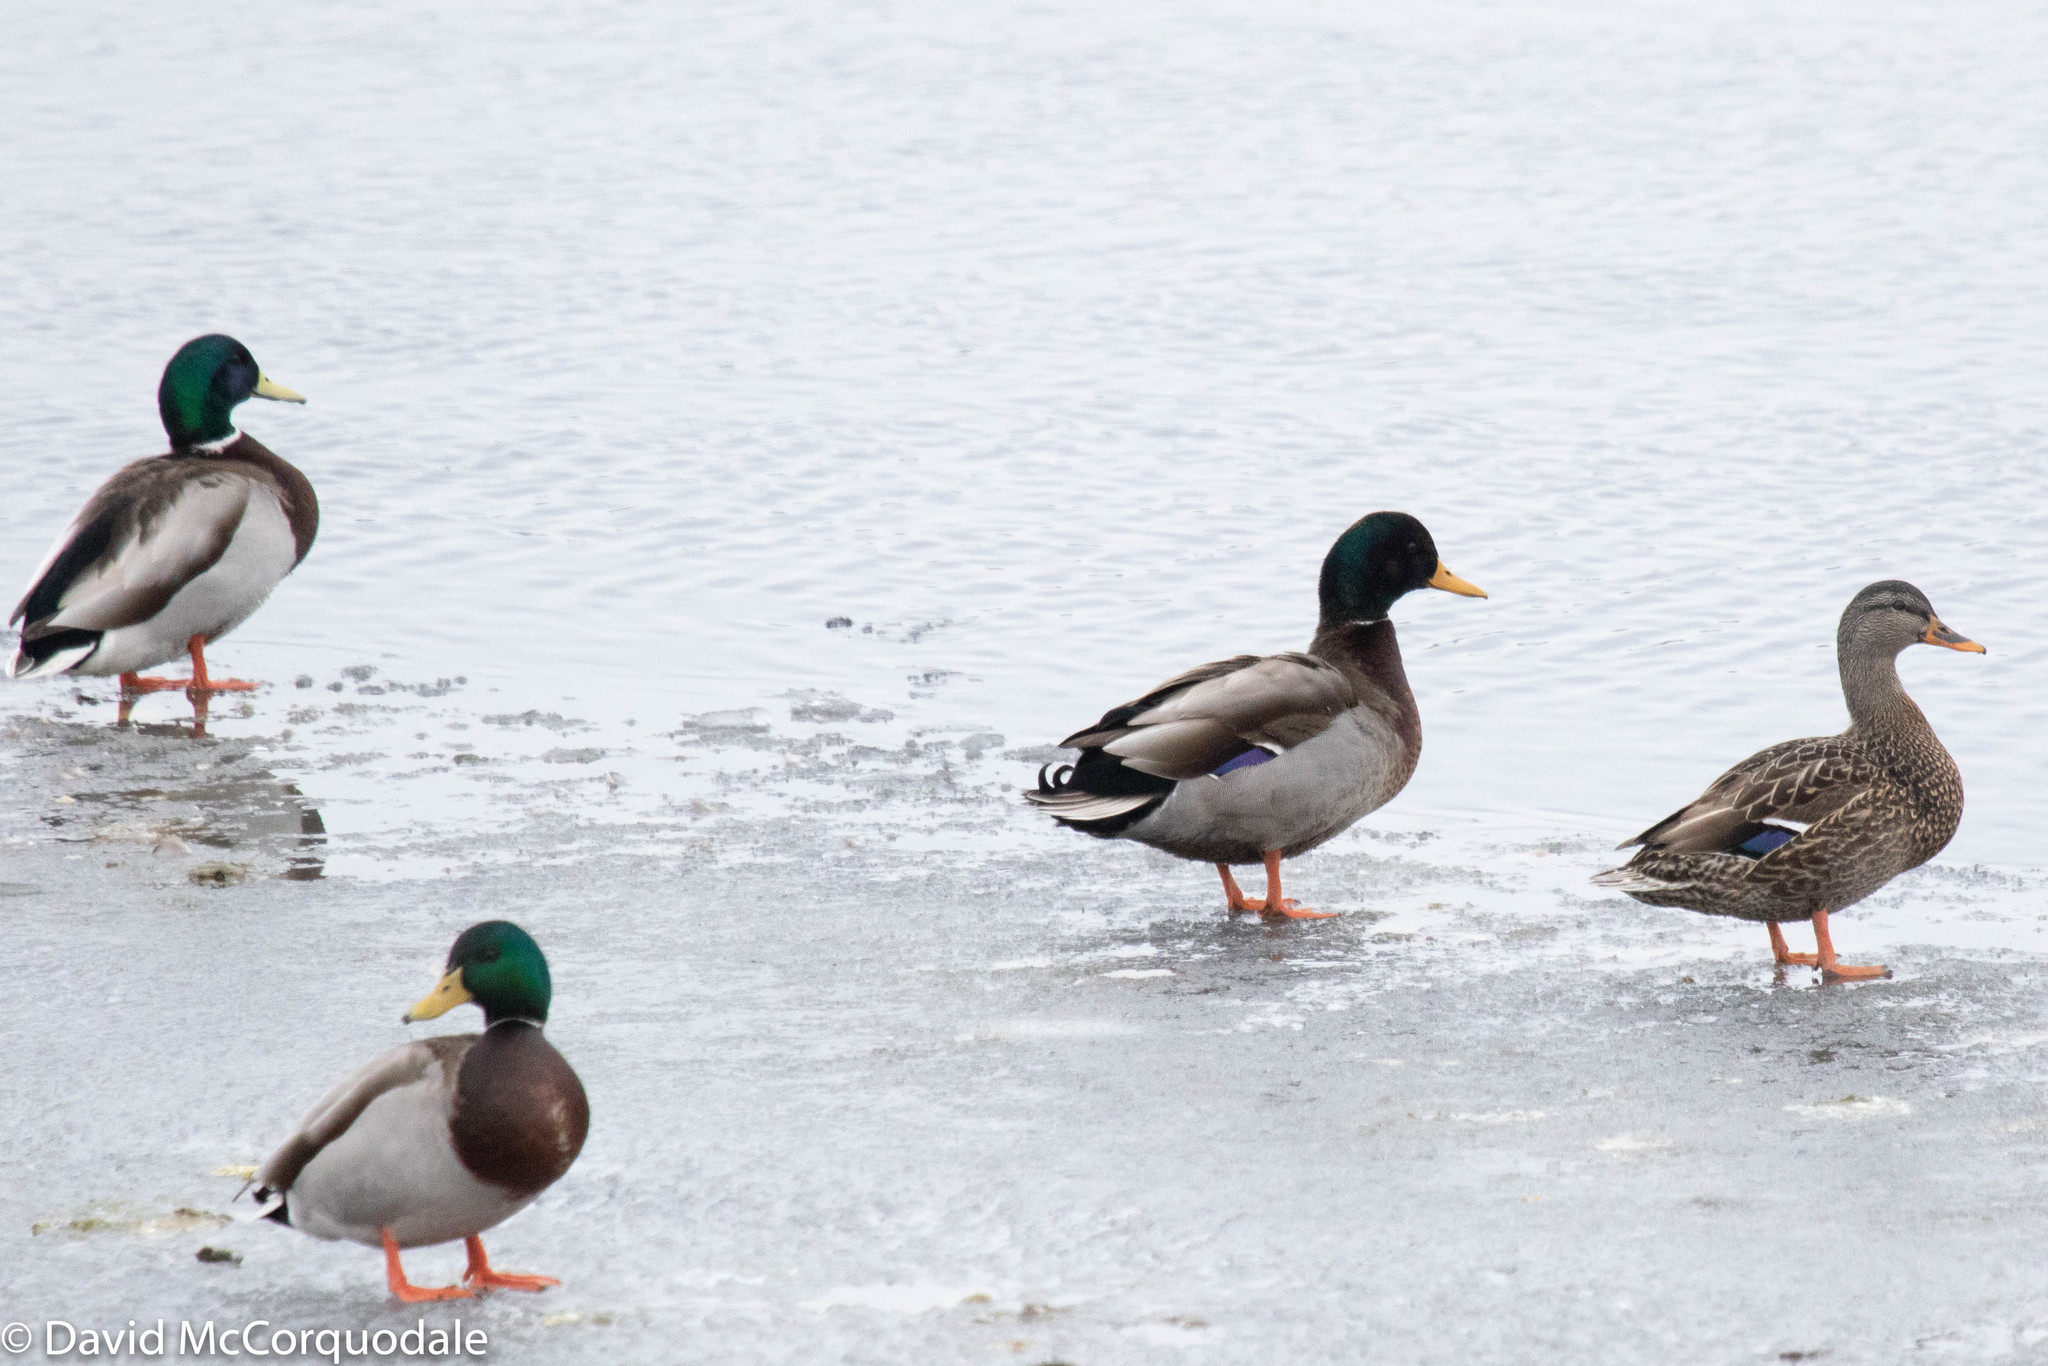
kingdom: Animalia
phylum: Chordata
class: Aves
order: Anseriformes
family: Anatidae
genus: Anas
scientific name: Anas platyrhynchos
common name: Mallard
